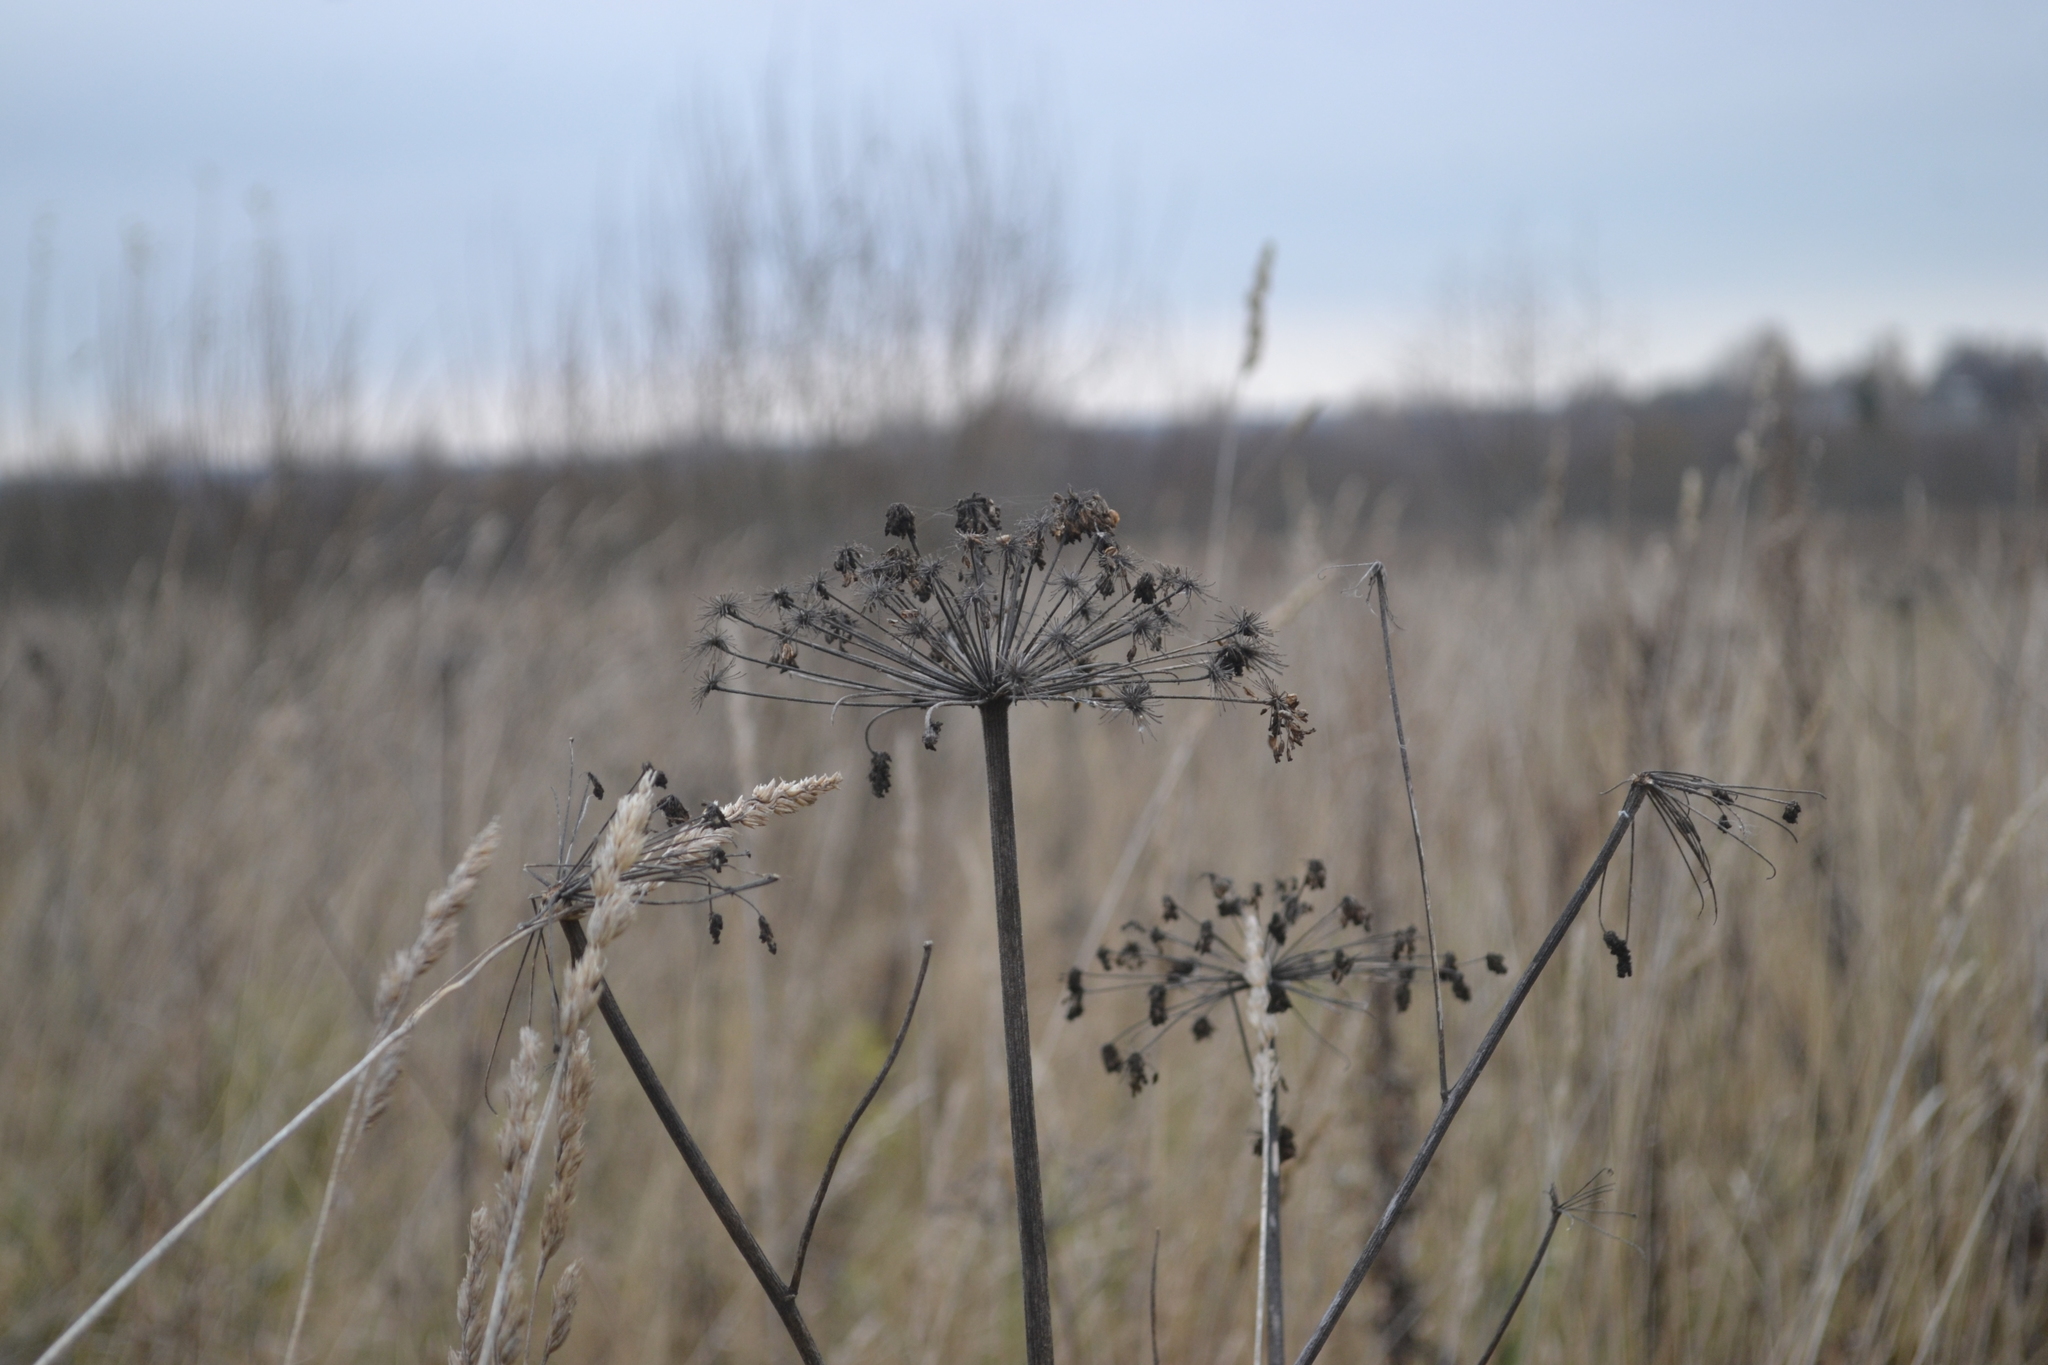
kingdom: Plantae
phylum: Tracheophyta
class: Magnoliopsida
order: Apiales
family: Apiaceae
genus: Anthriscus
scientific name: Anthriscus sylvestris
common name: Cow parsley
